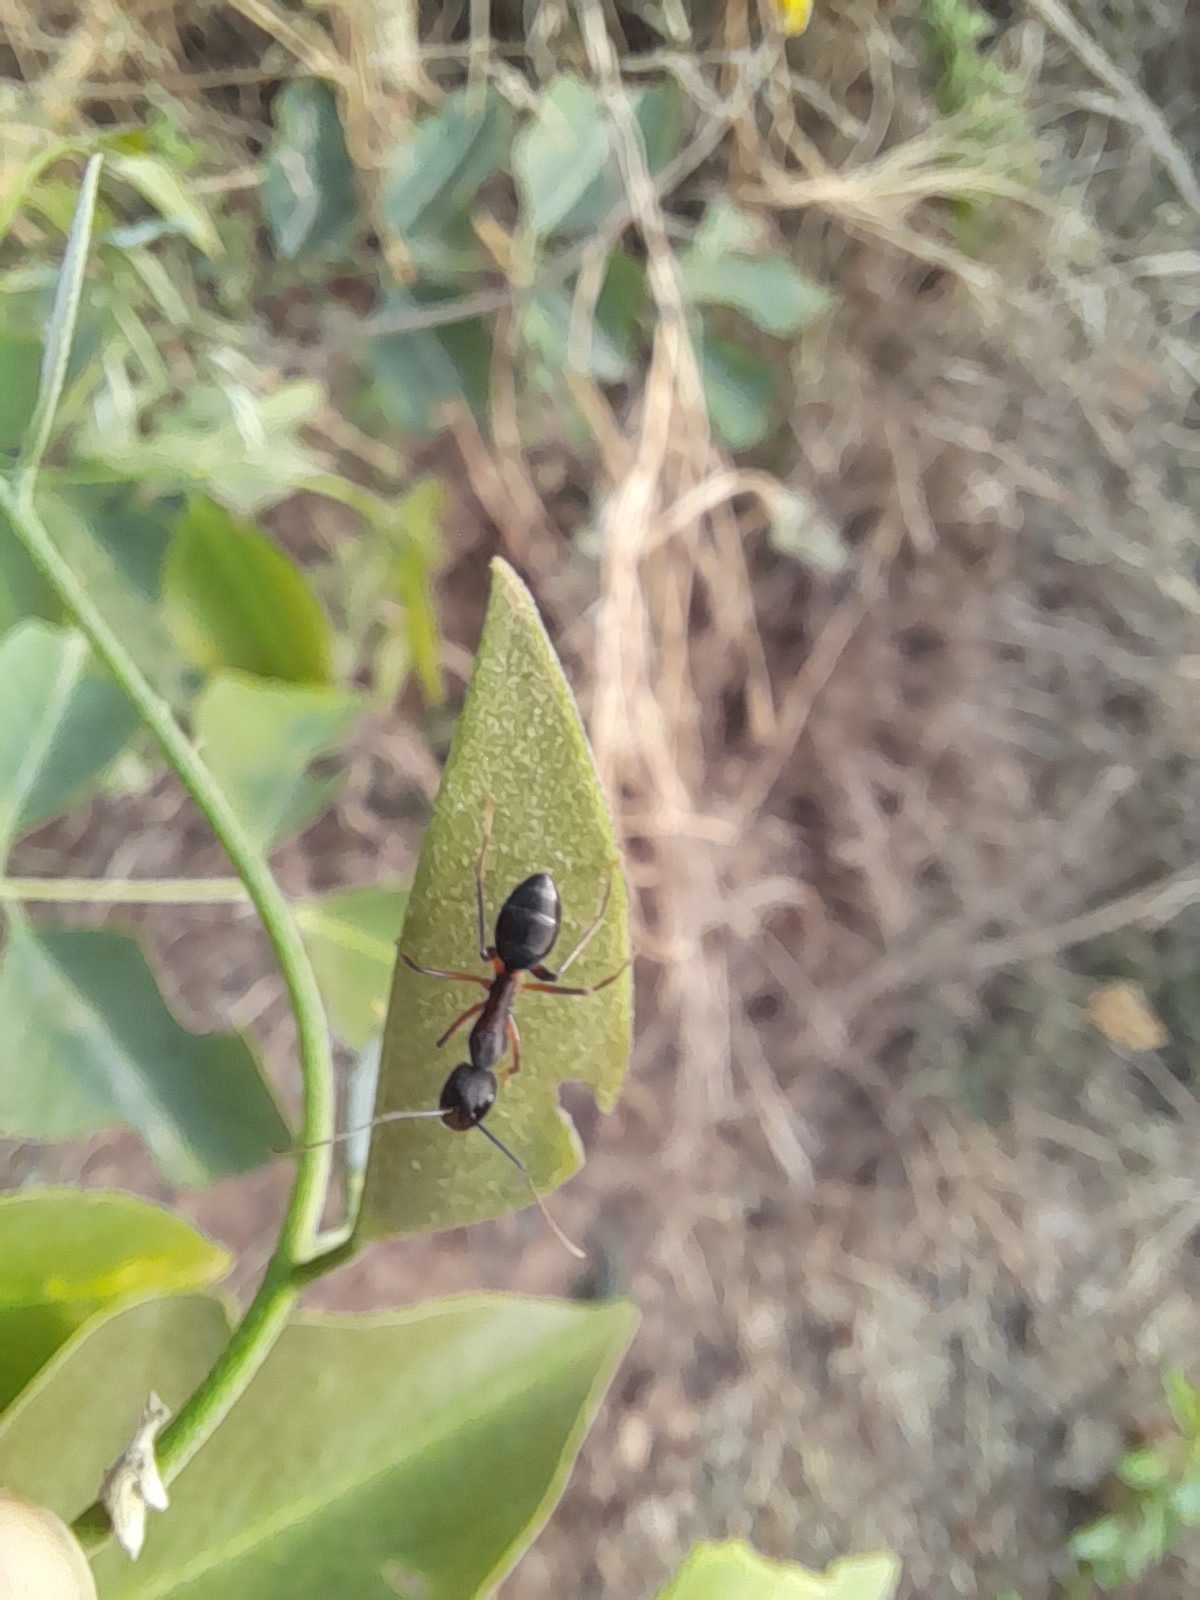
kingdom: Animalia
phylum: Arthropoda
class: Insecta
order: Hymenoptera
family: Formicidae
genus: Camponotus
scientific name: Camponotus compressus
